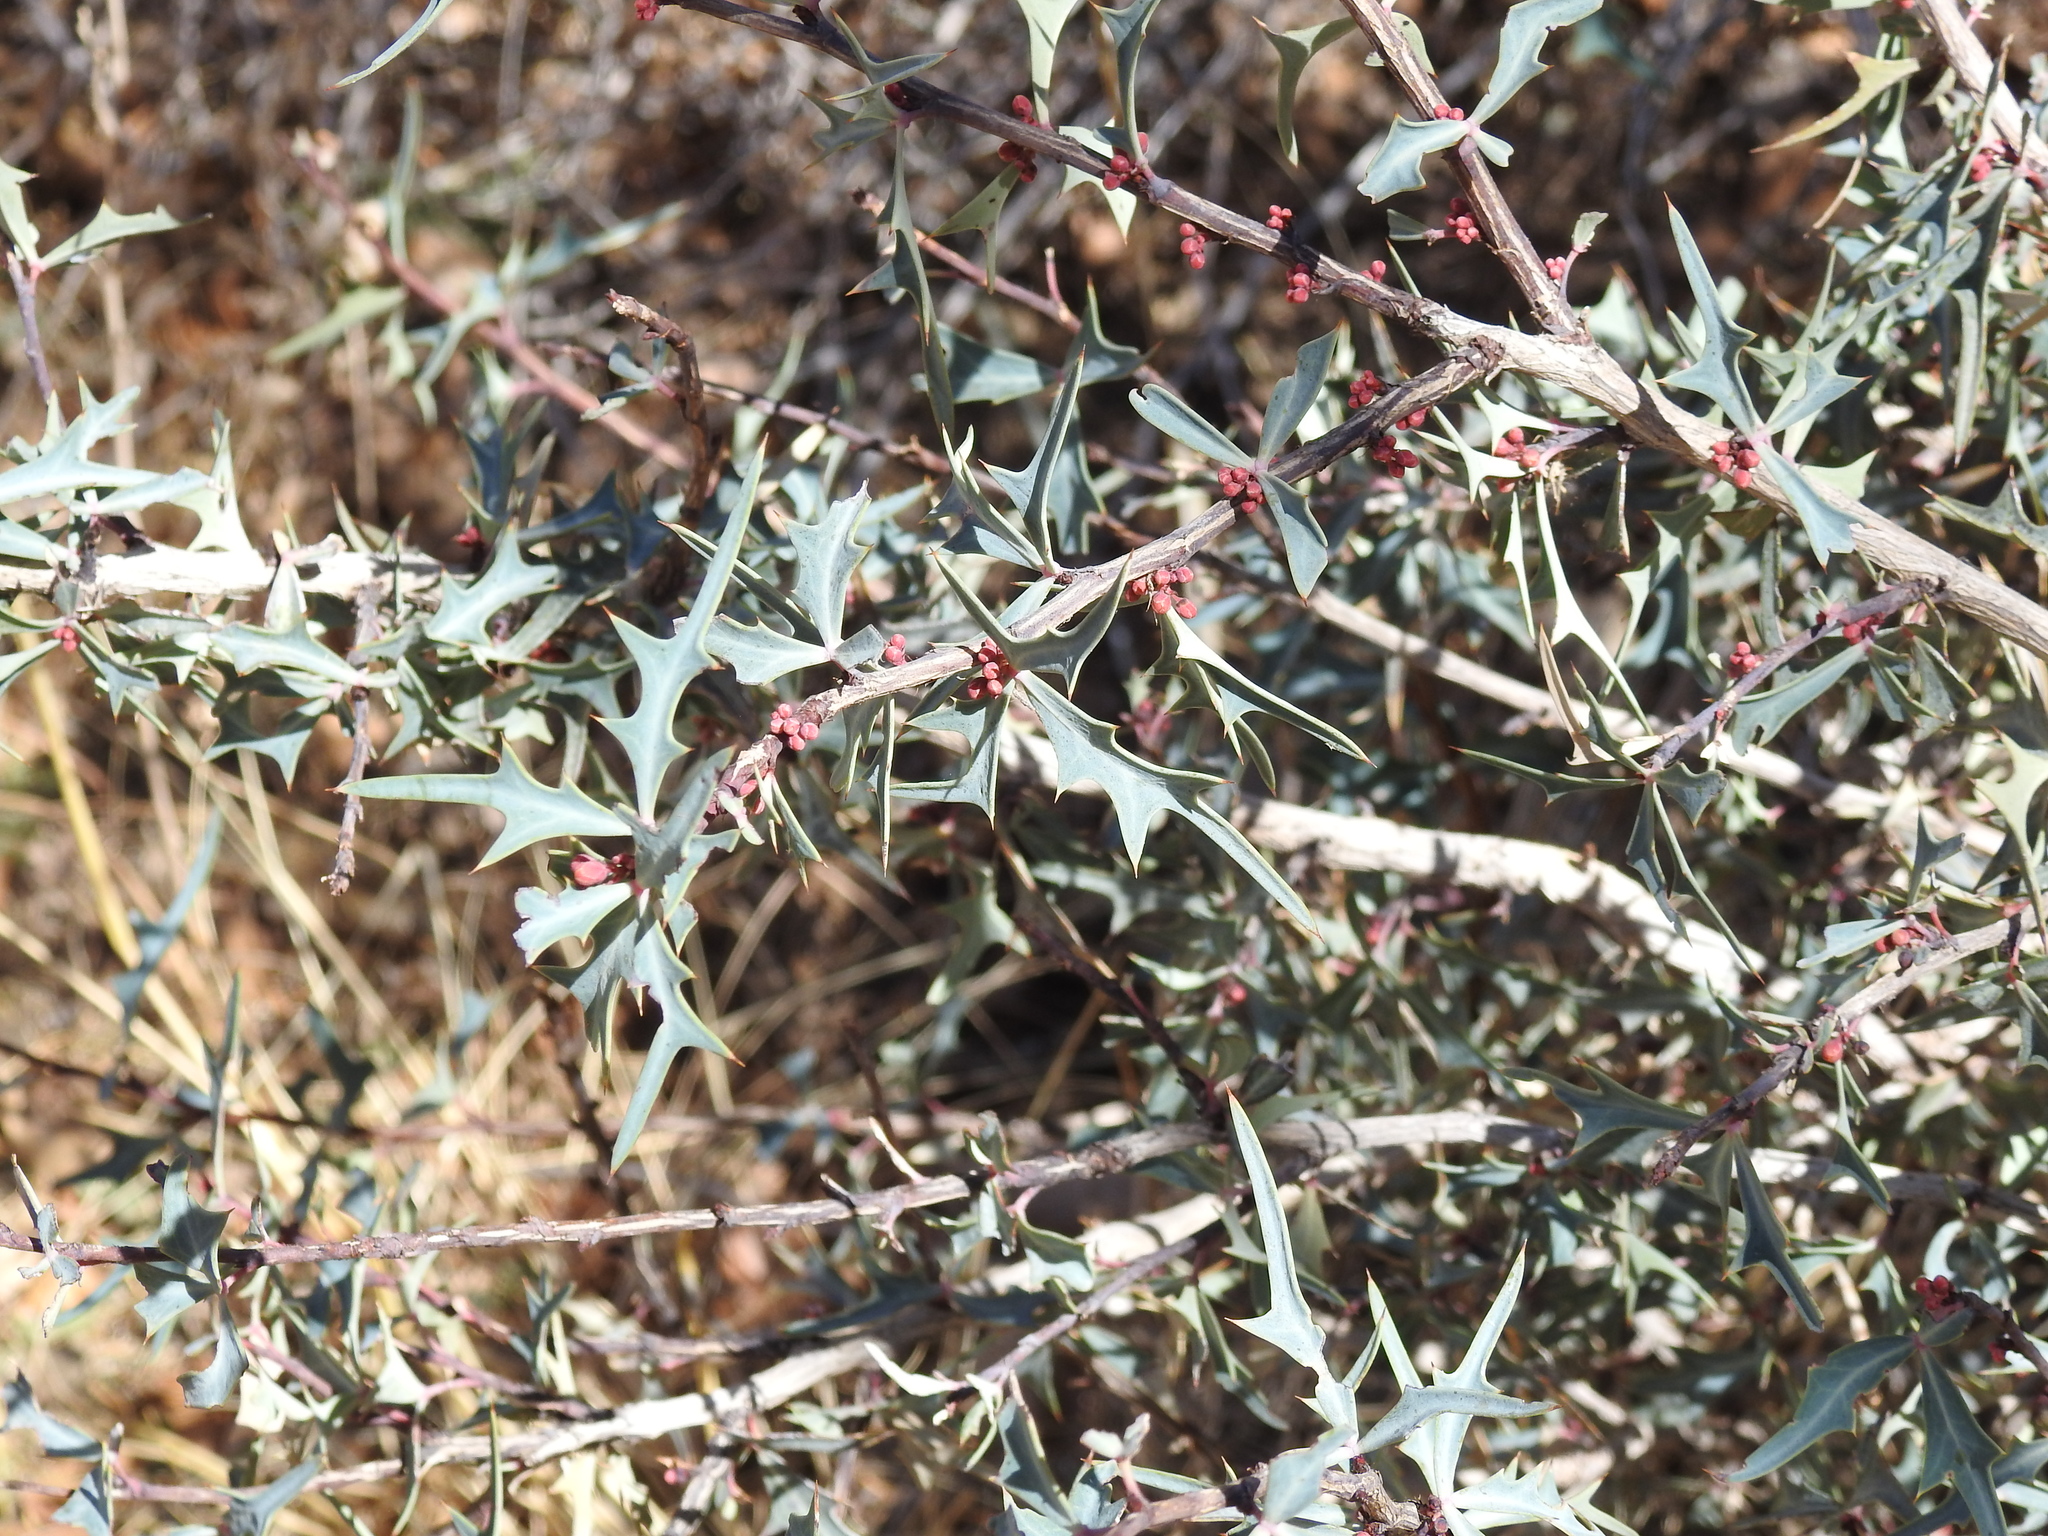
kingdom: Plantae
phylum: Tracheophyta
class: Magnoliopsida
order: Ranunculales
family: Berberidaceae
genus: Alloberberis
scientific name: Alloberberis trifoliolata
